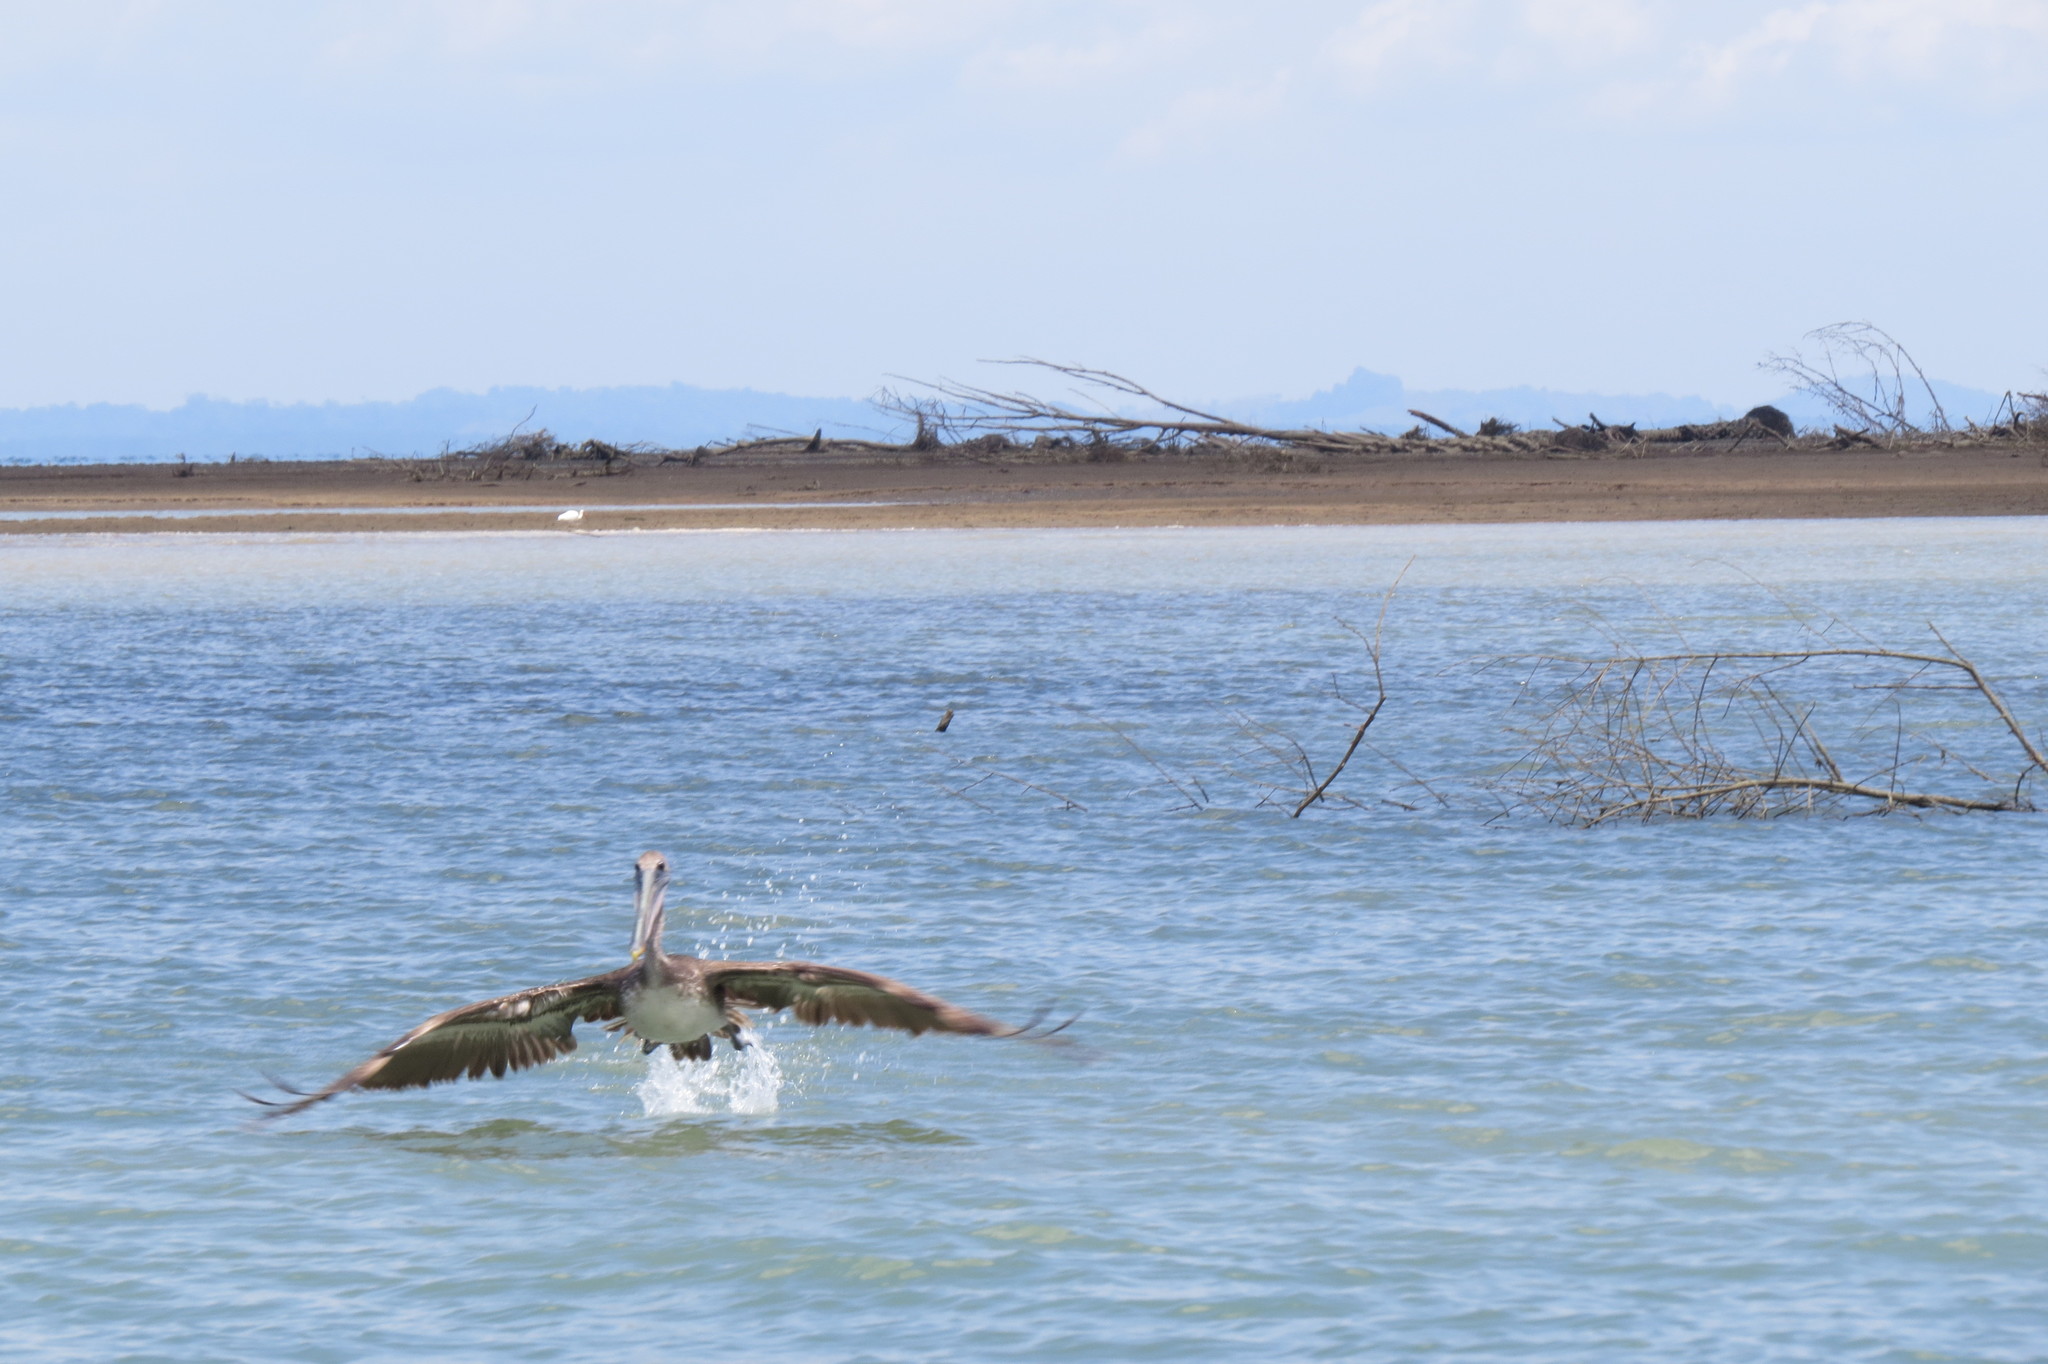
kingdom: Animalia
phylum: Chordata
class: Aves
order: Pelecaniformes
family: Pelecanidae
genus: Pelecanus
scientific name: Pelecanus occidentalis
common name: Brown pelican
